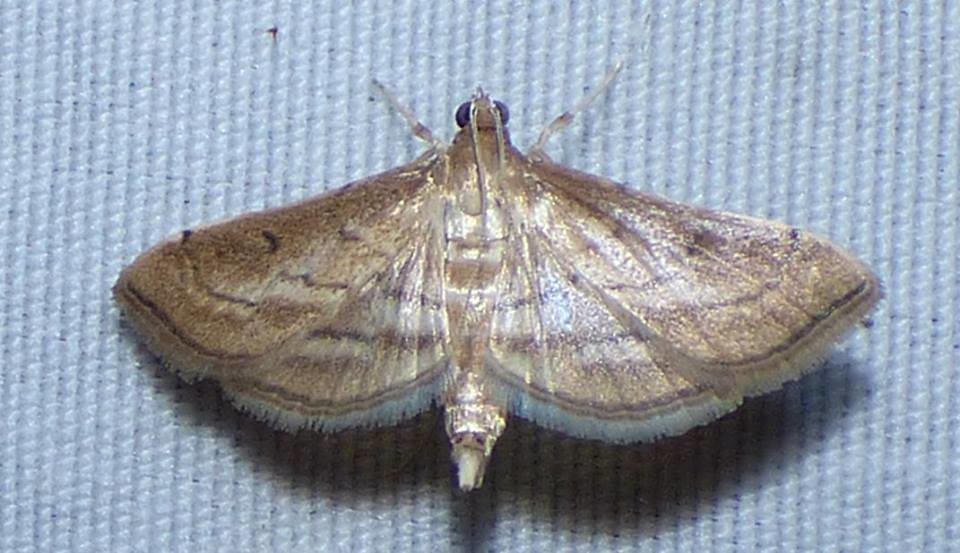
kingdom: Animalia
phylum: Arthropoda
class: Insecta
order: Lepidoptera
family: Crambidae
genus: Cnaphalocrocis
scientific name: Cnaphalocrocis Marasmia trapezalis
